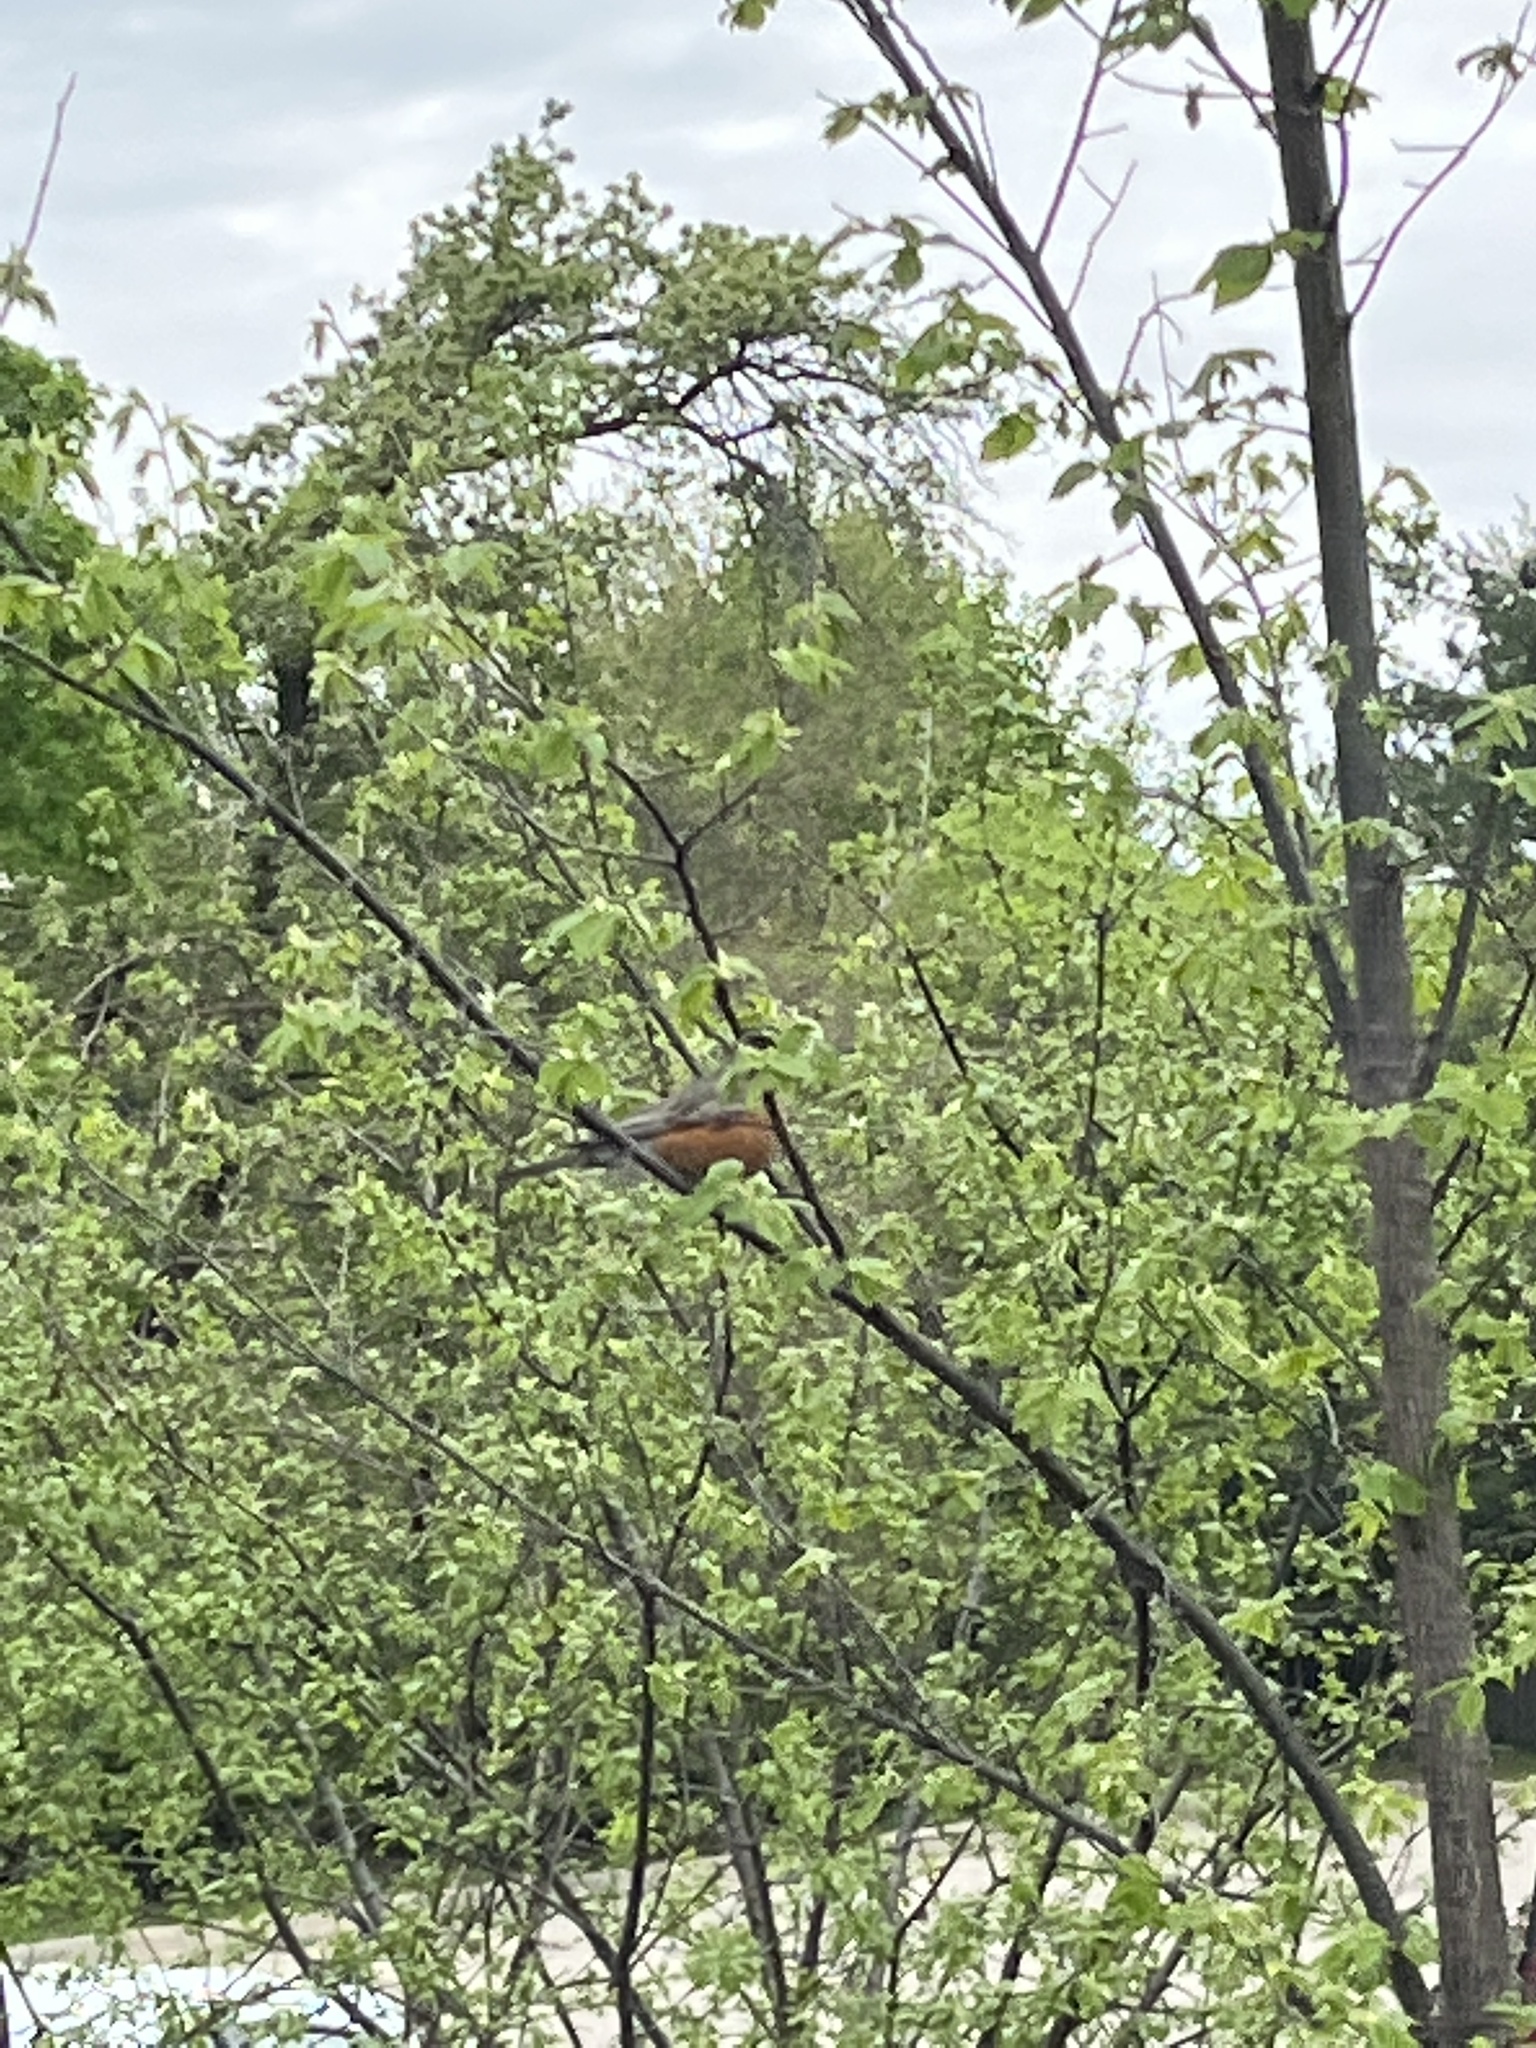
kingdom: Animalia
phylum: Chordata
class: Aves
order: Passeriformes
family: Turdidae
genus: Turdus
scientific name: Turdus migratorius
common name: American robin
